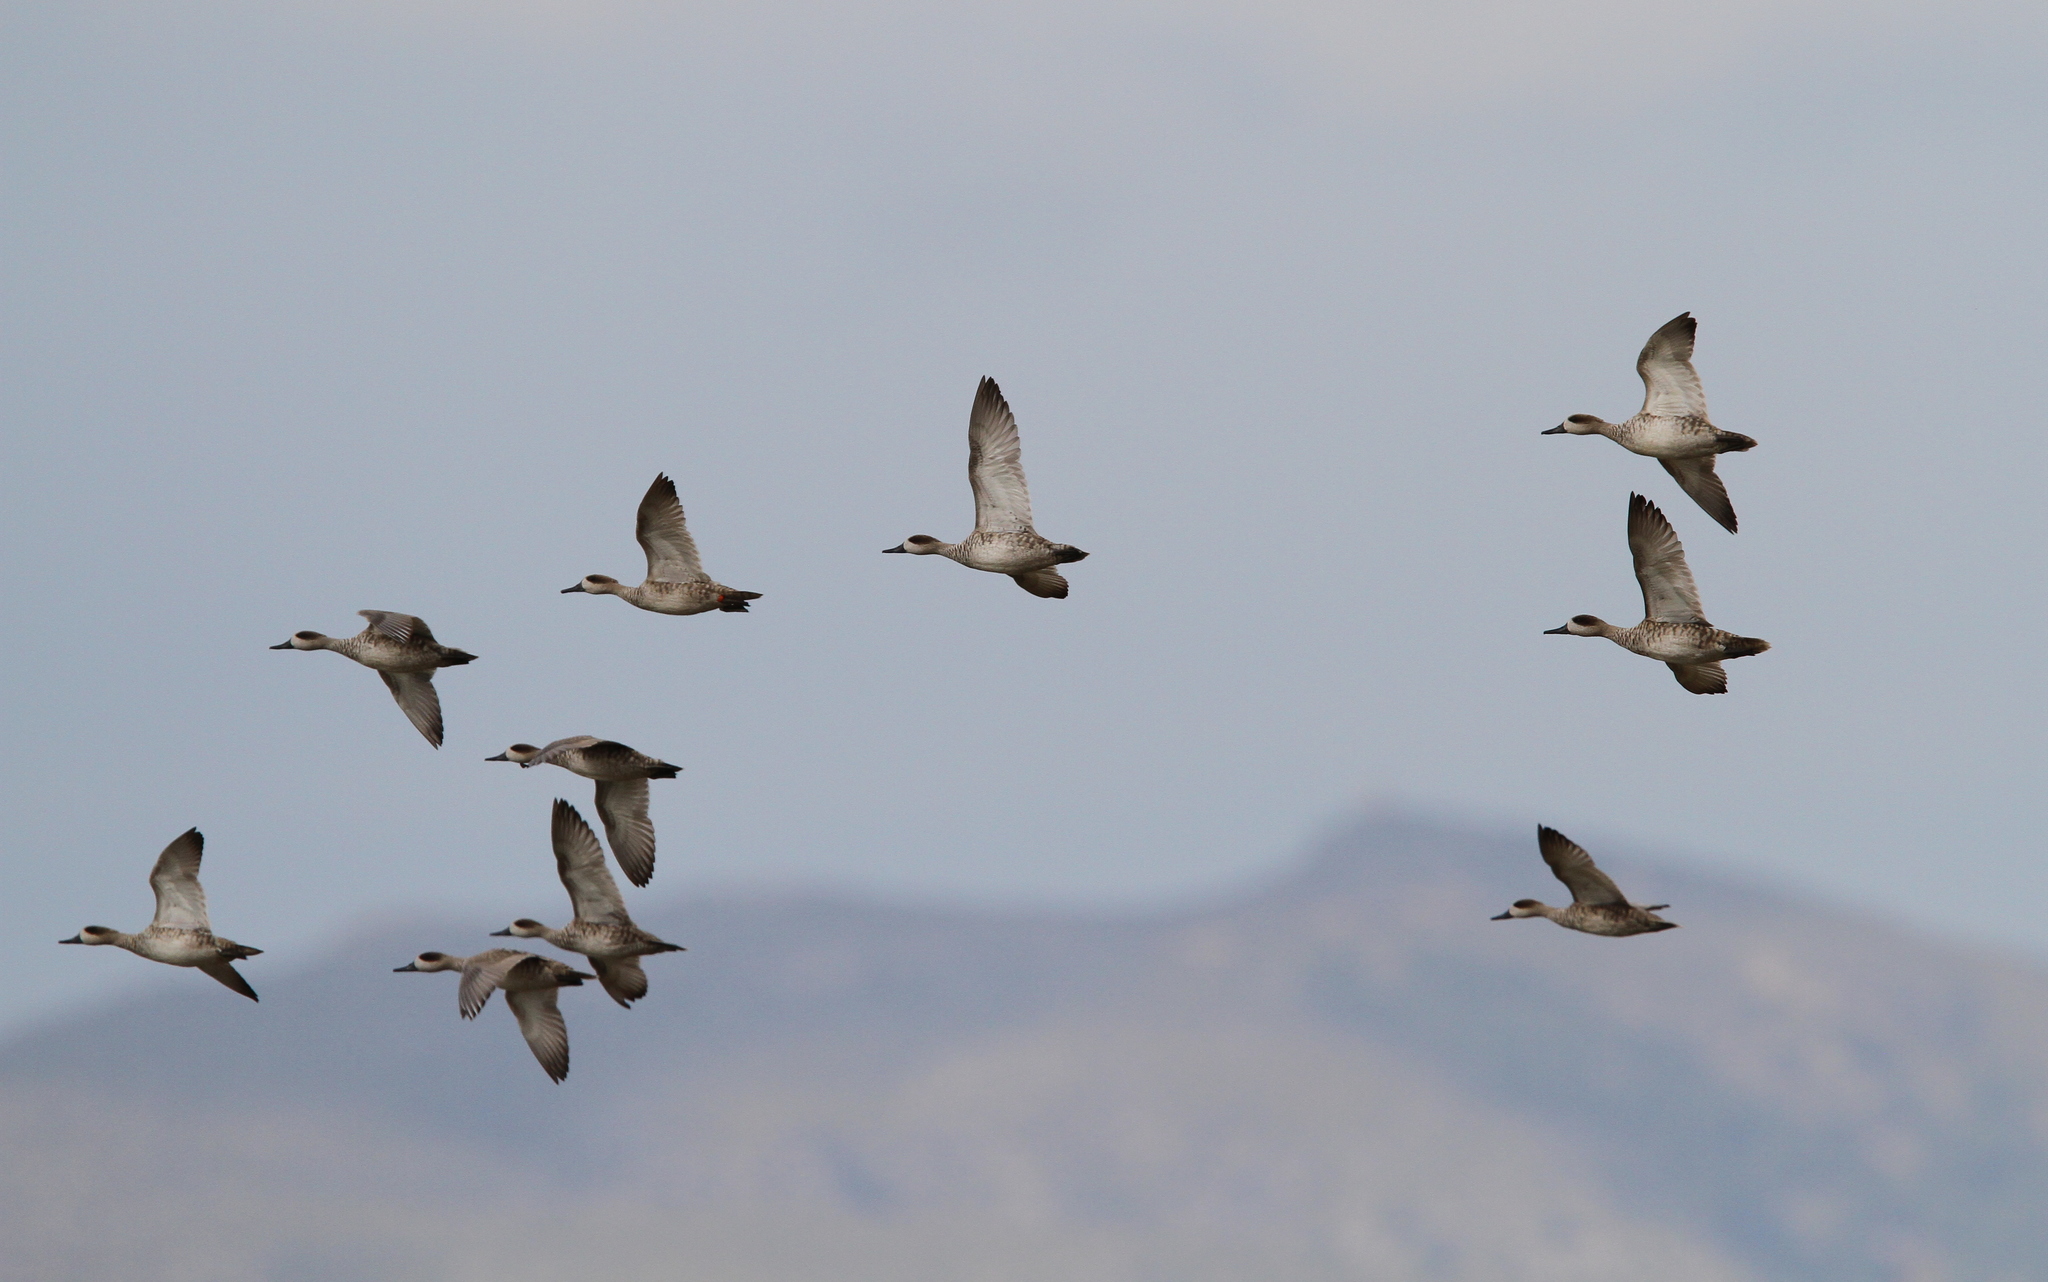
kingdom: Animalia
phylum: Chordata
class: Aves
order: Anseriformes
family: Anatidae
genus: Marmaronetta
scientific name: Marmaronetta angustirostris
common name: Marbled duck
